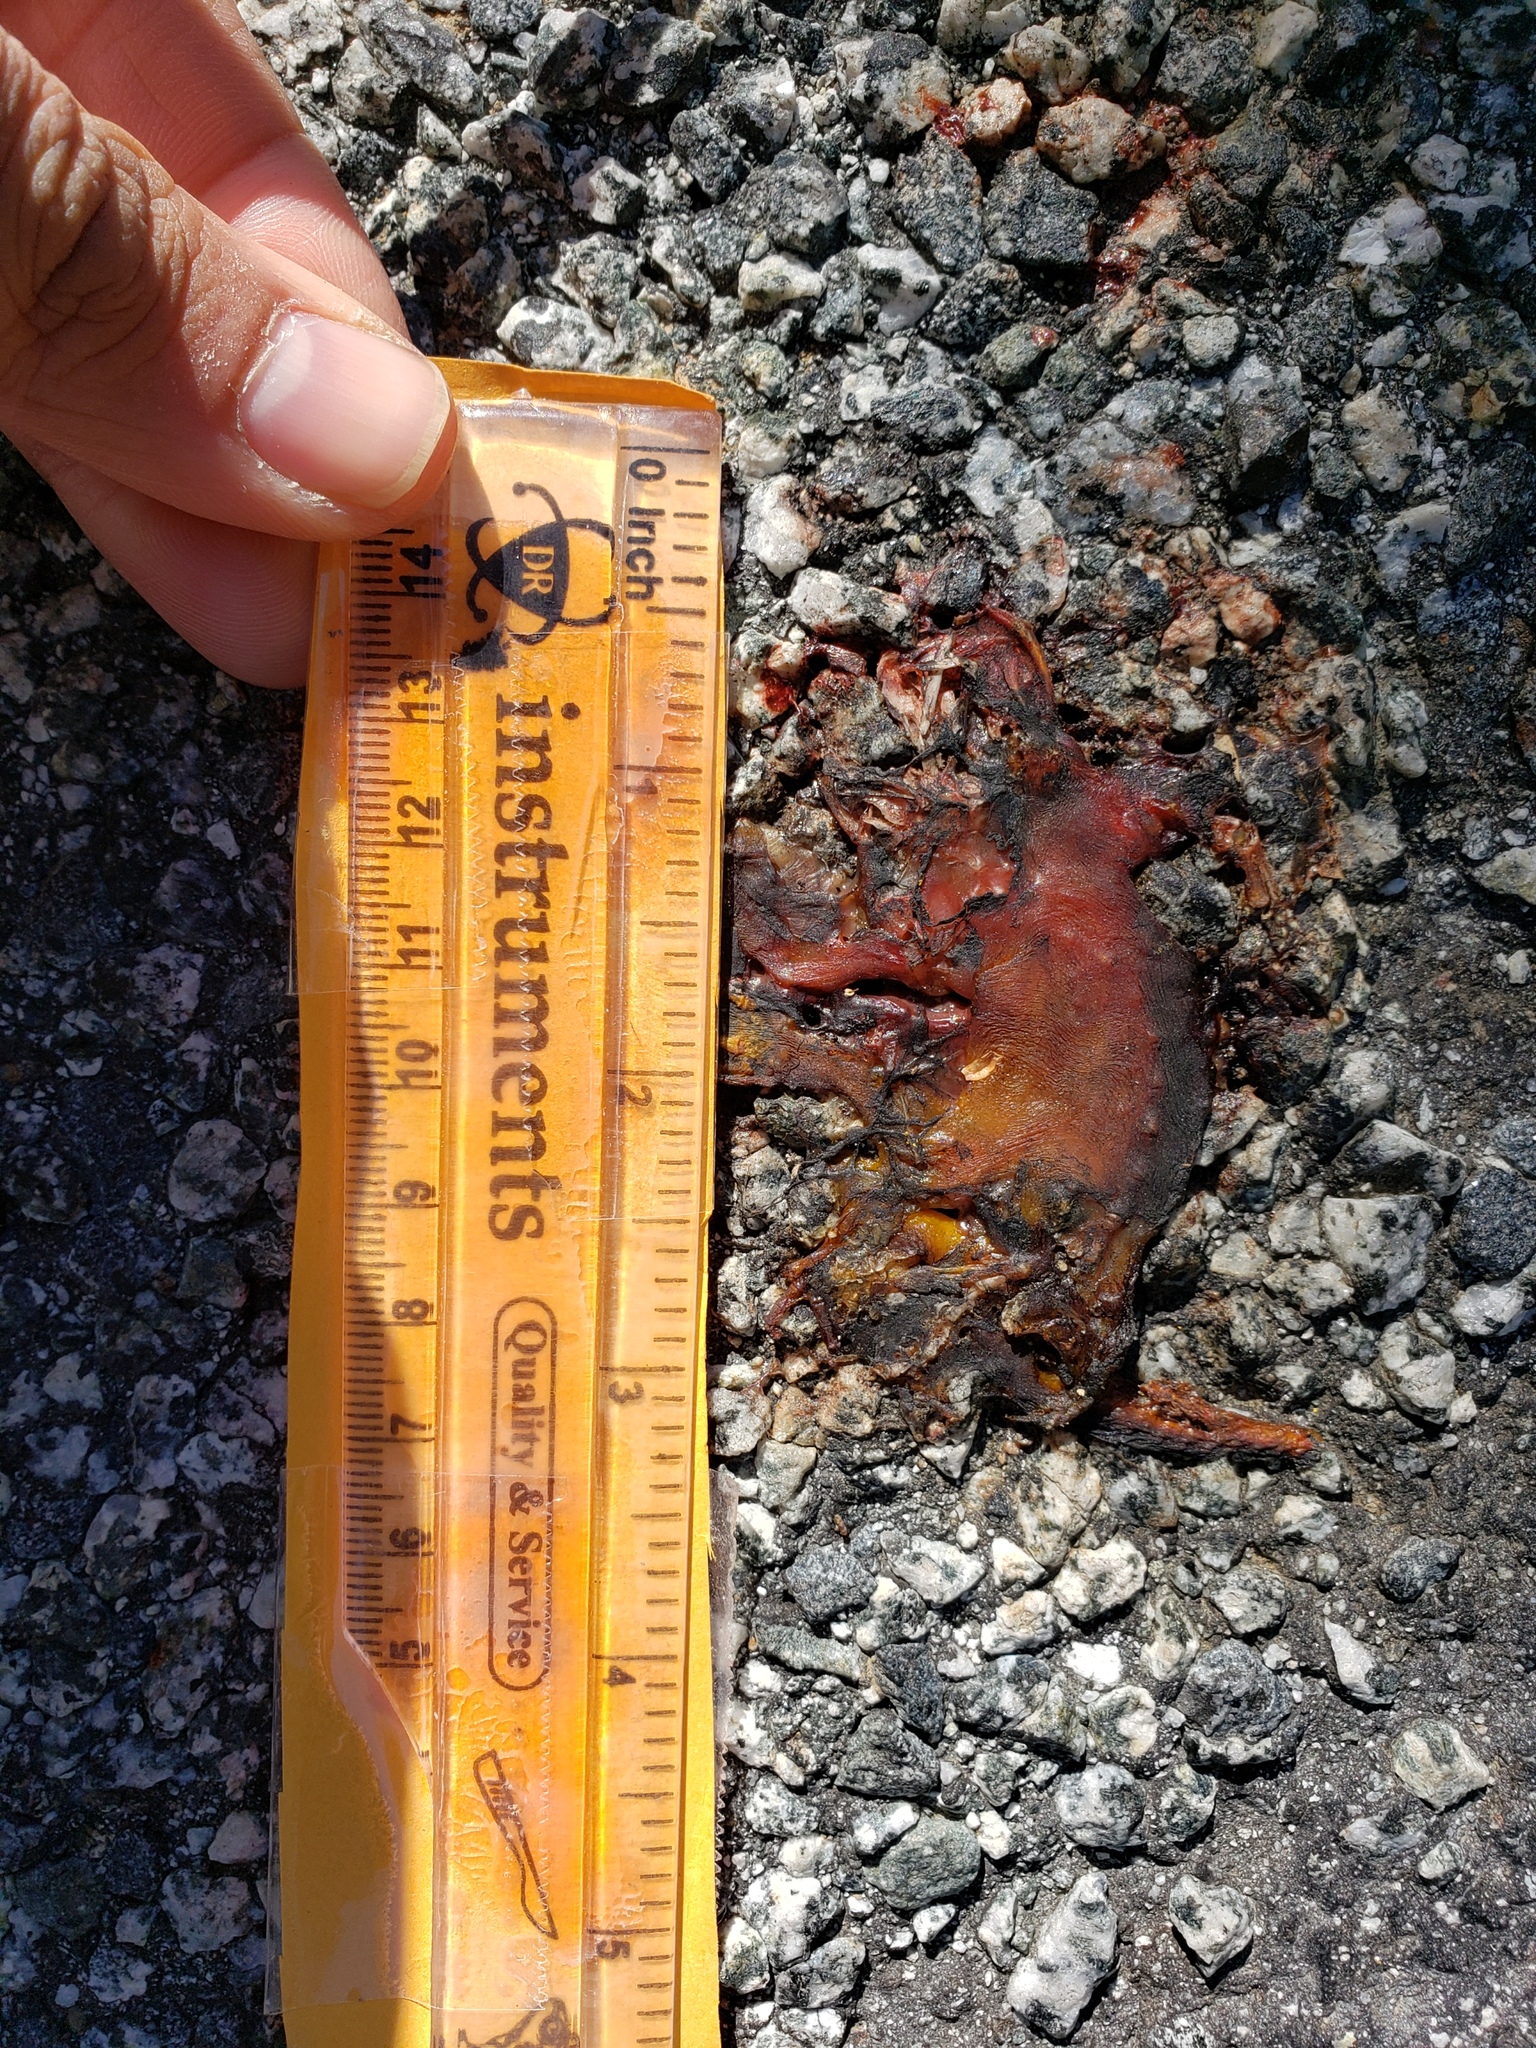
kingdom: Animalia
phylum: Chordata
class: Amphibia
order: Caudata
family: Salamandridae
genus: Taricha
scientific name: Taricha
